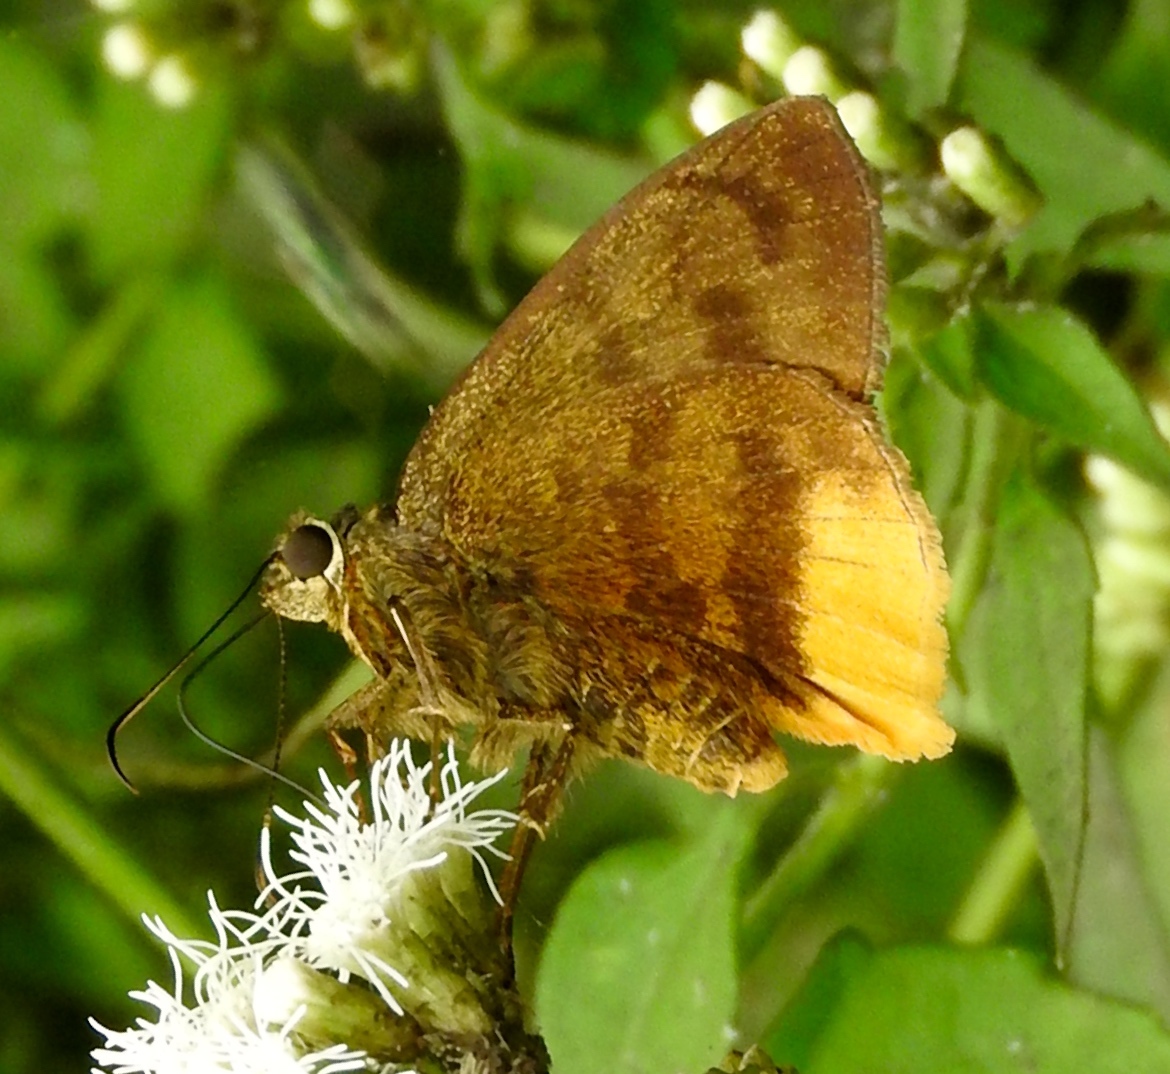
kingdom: Animalia
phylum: Arthropoda
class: Insecta
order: Lepidoptera
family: Hesperiidae
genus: Astraptes
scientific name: Astraptes anaphus
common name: Yellow-tipped flasher
